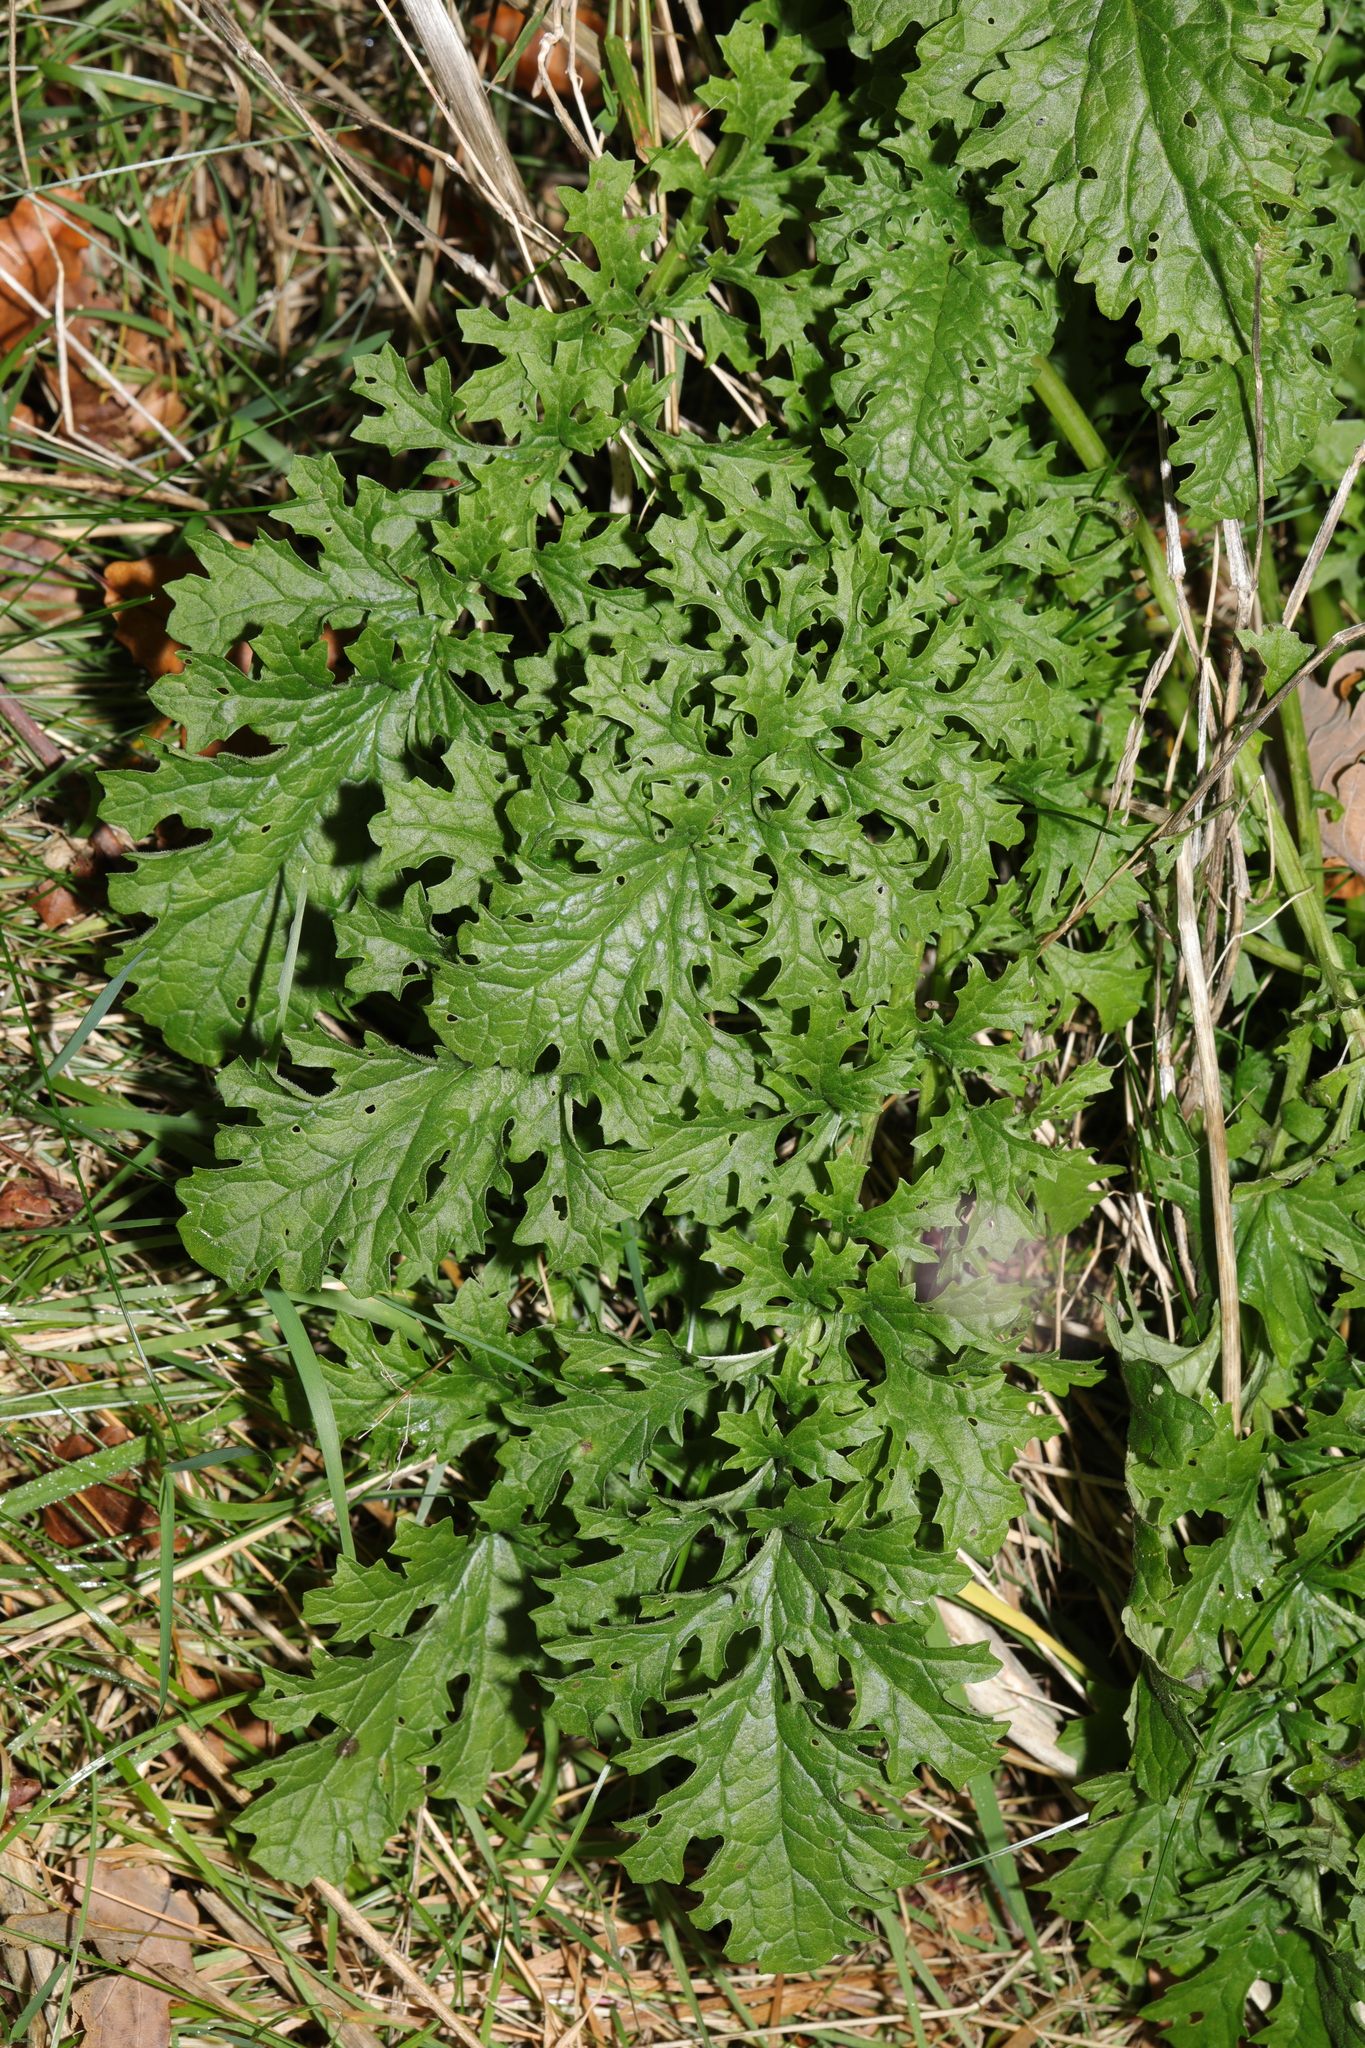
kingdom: Plantae
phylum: Tracheophyta
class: Magnoliopsida
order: Asterales
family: Asteraceae
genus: Jacobaea
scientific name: Jacobaea vulgaris
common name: Stinking willie
